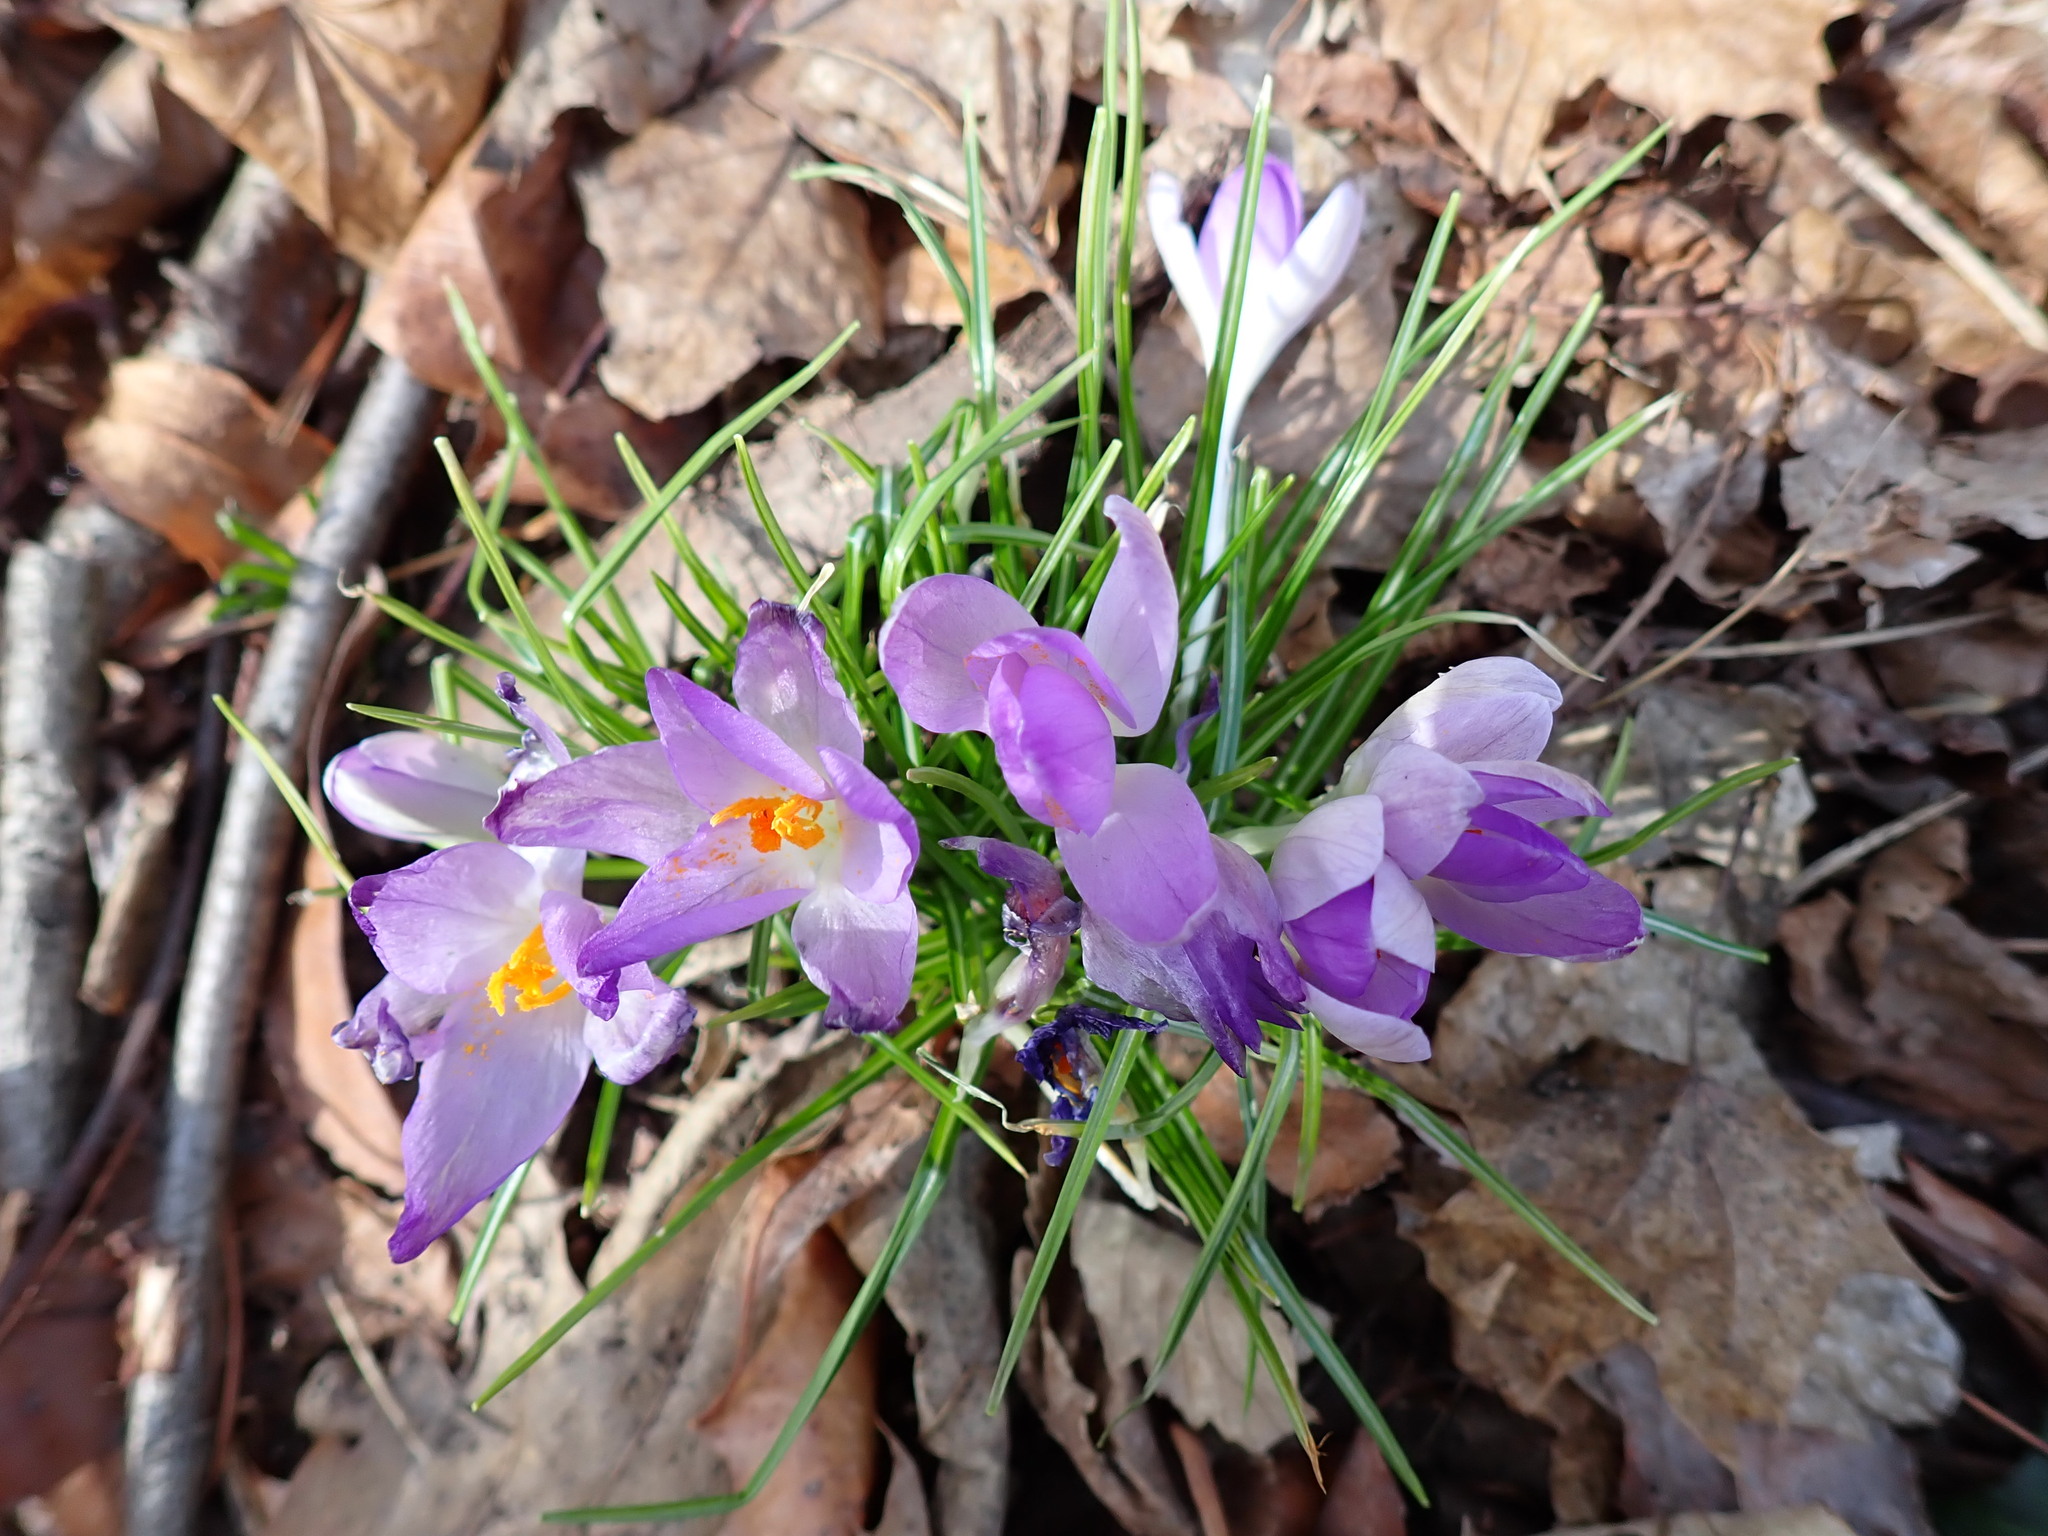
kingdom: Plantae
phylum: Tracheophyta
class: Liliopsida
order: Asparagales
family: Iridaceae
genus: Crocus
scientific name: Crocus tommasinianus
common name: Early crocus
